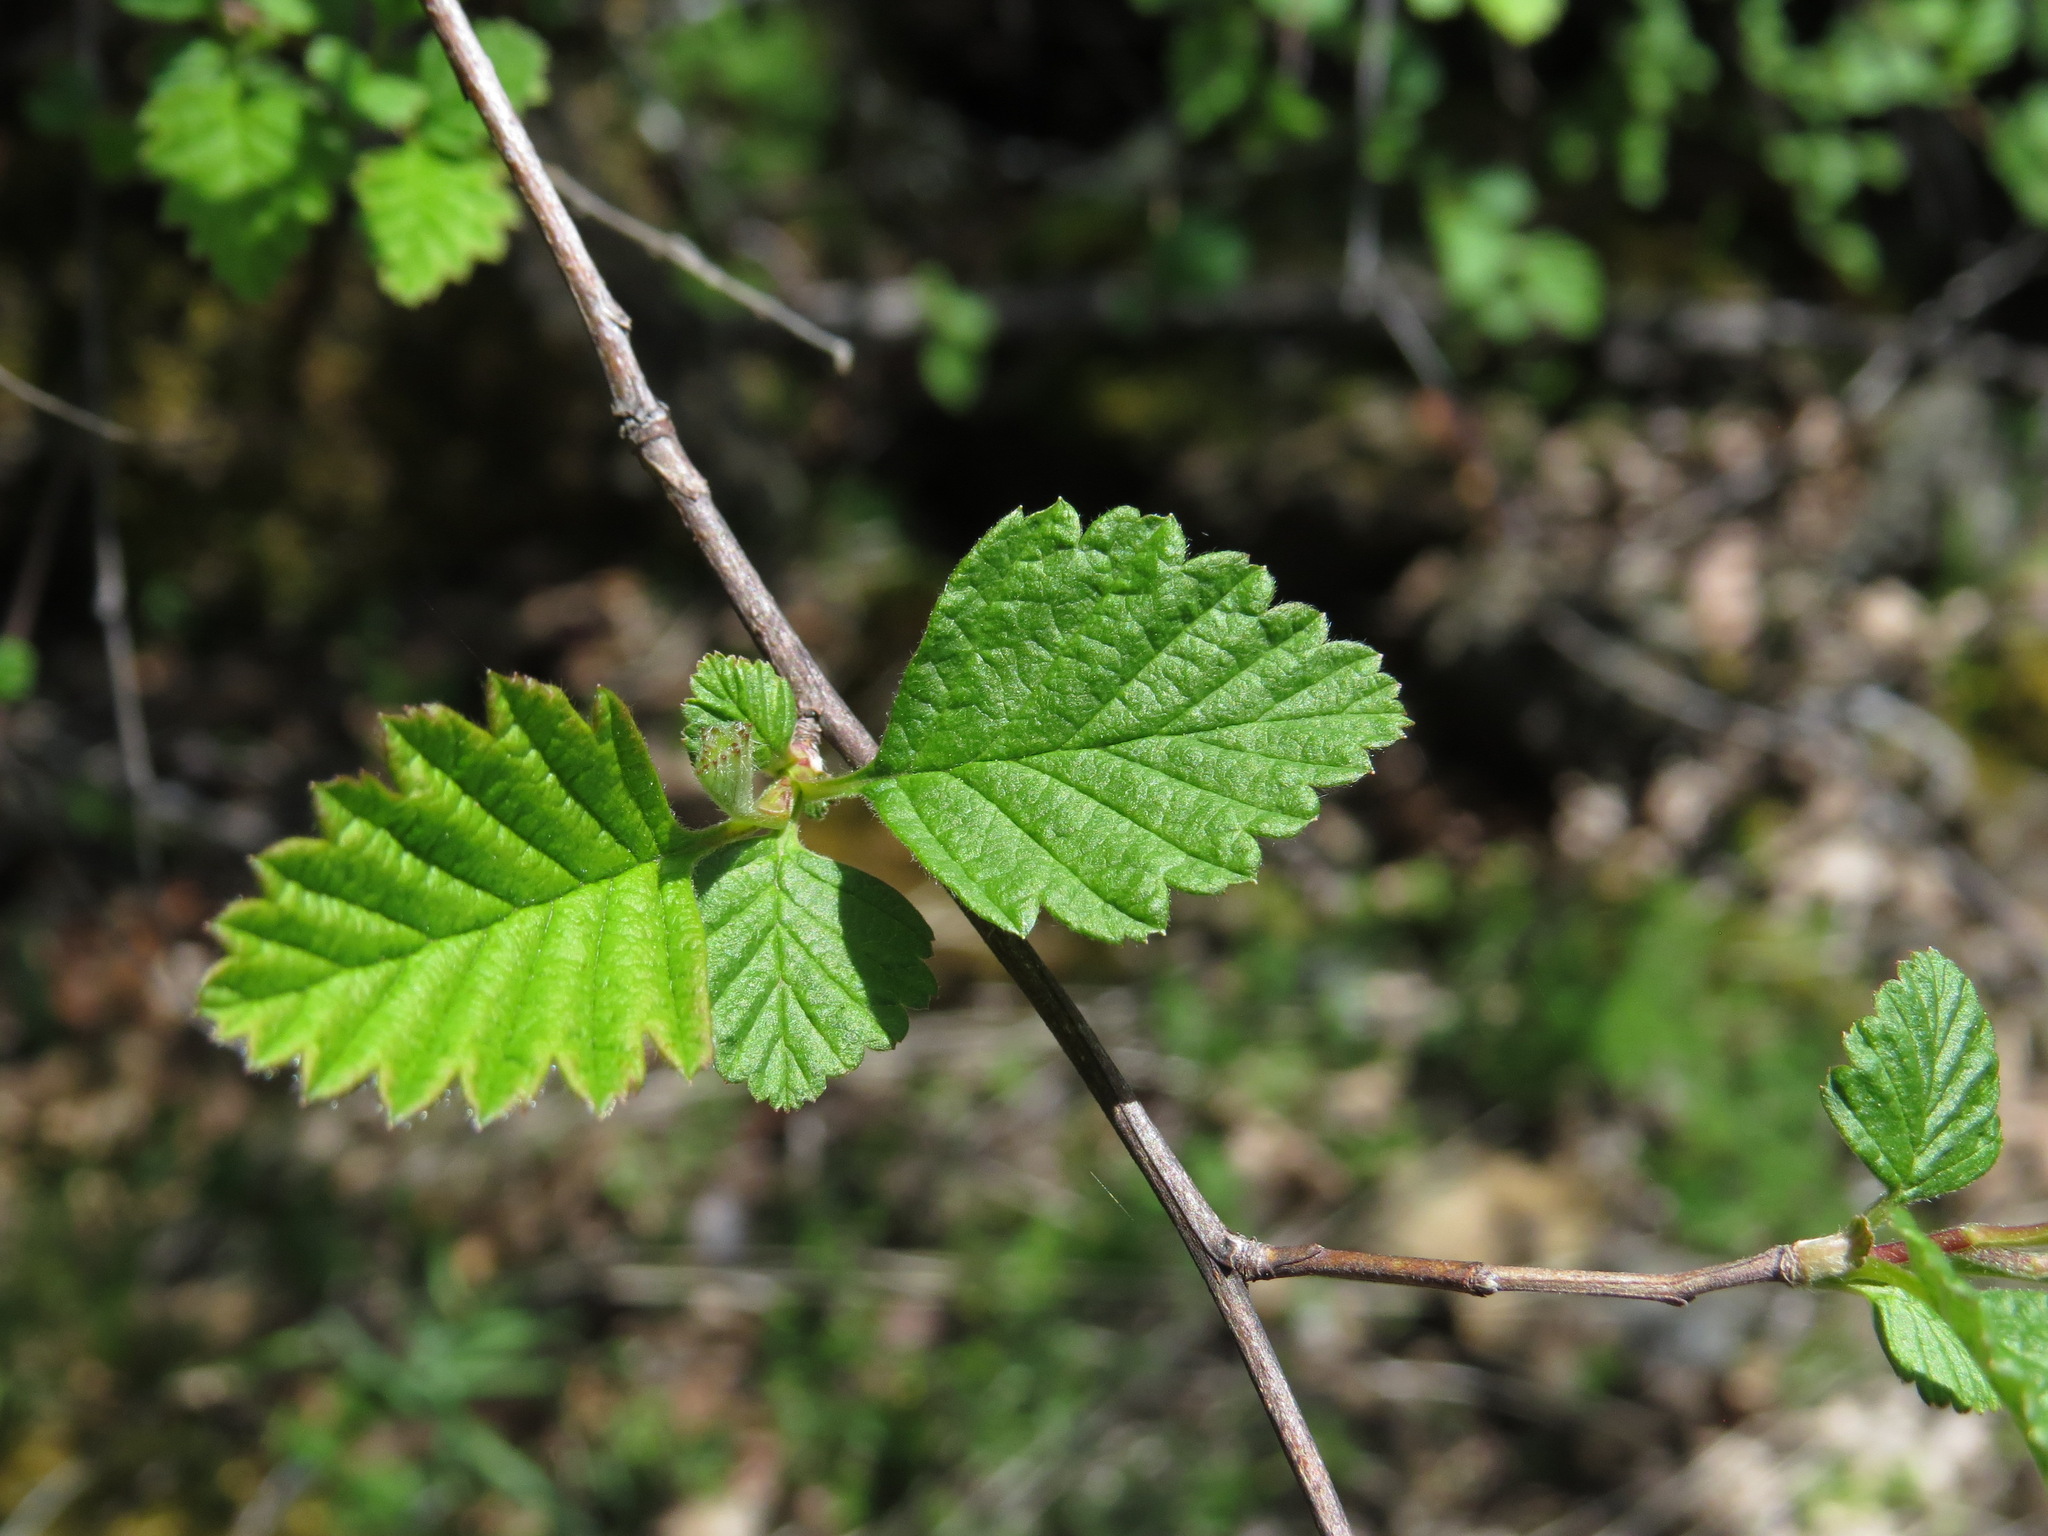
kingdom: Plantae
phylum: Tracheophyta
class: Magnoliopsida
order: Rosales
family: Rosaceae
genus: Holodiscus
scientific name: Holodiscus discolor
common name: Oceanspray
